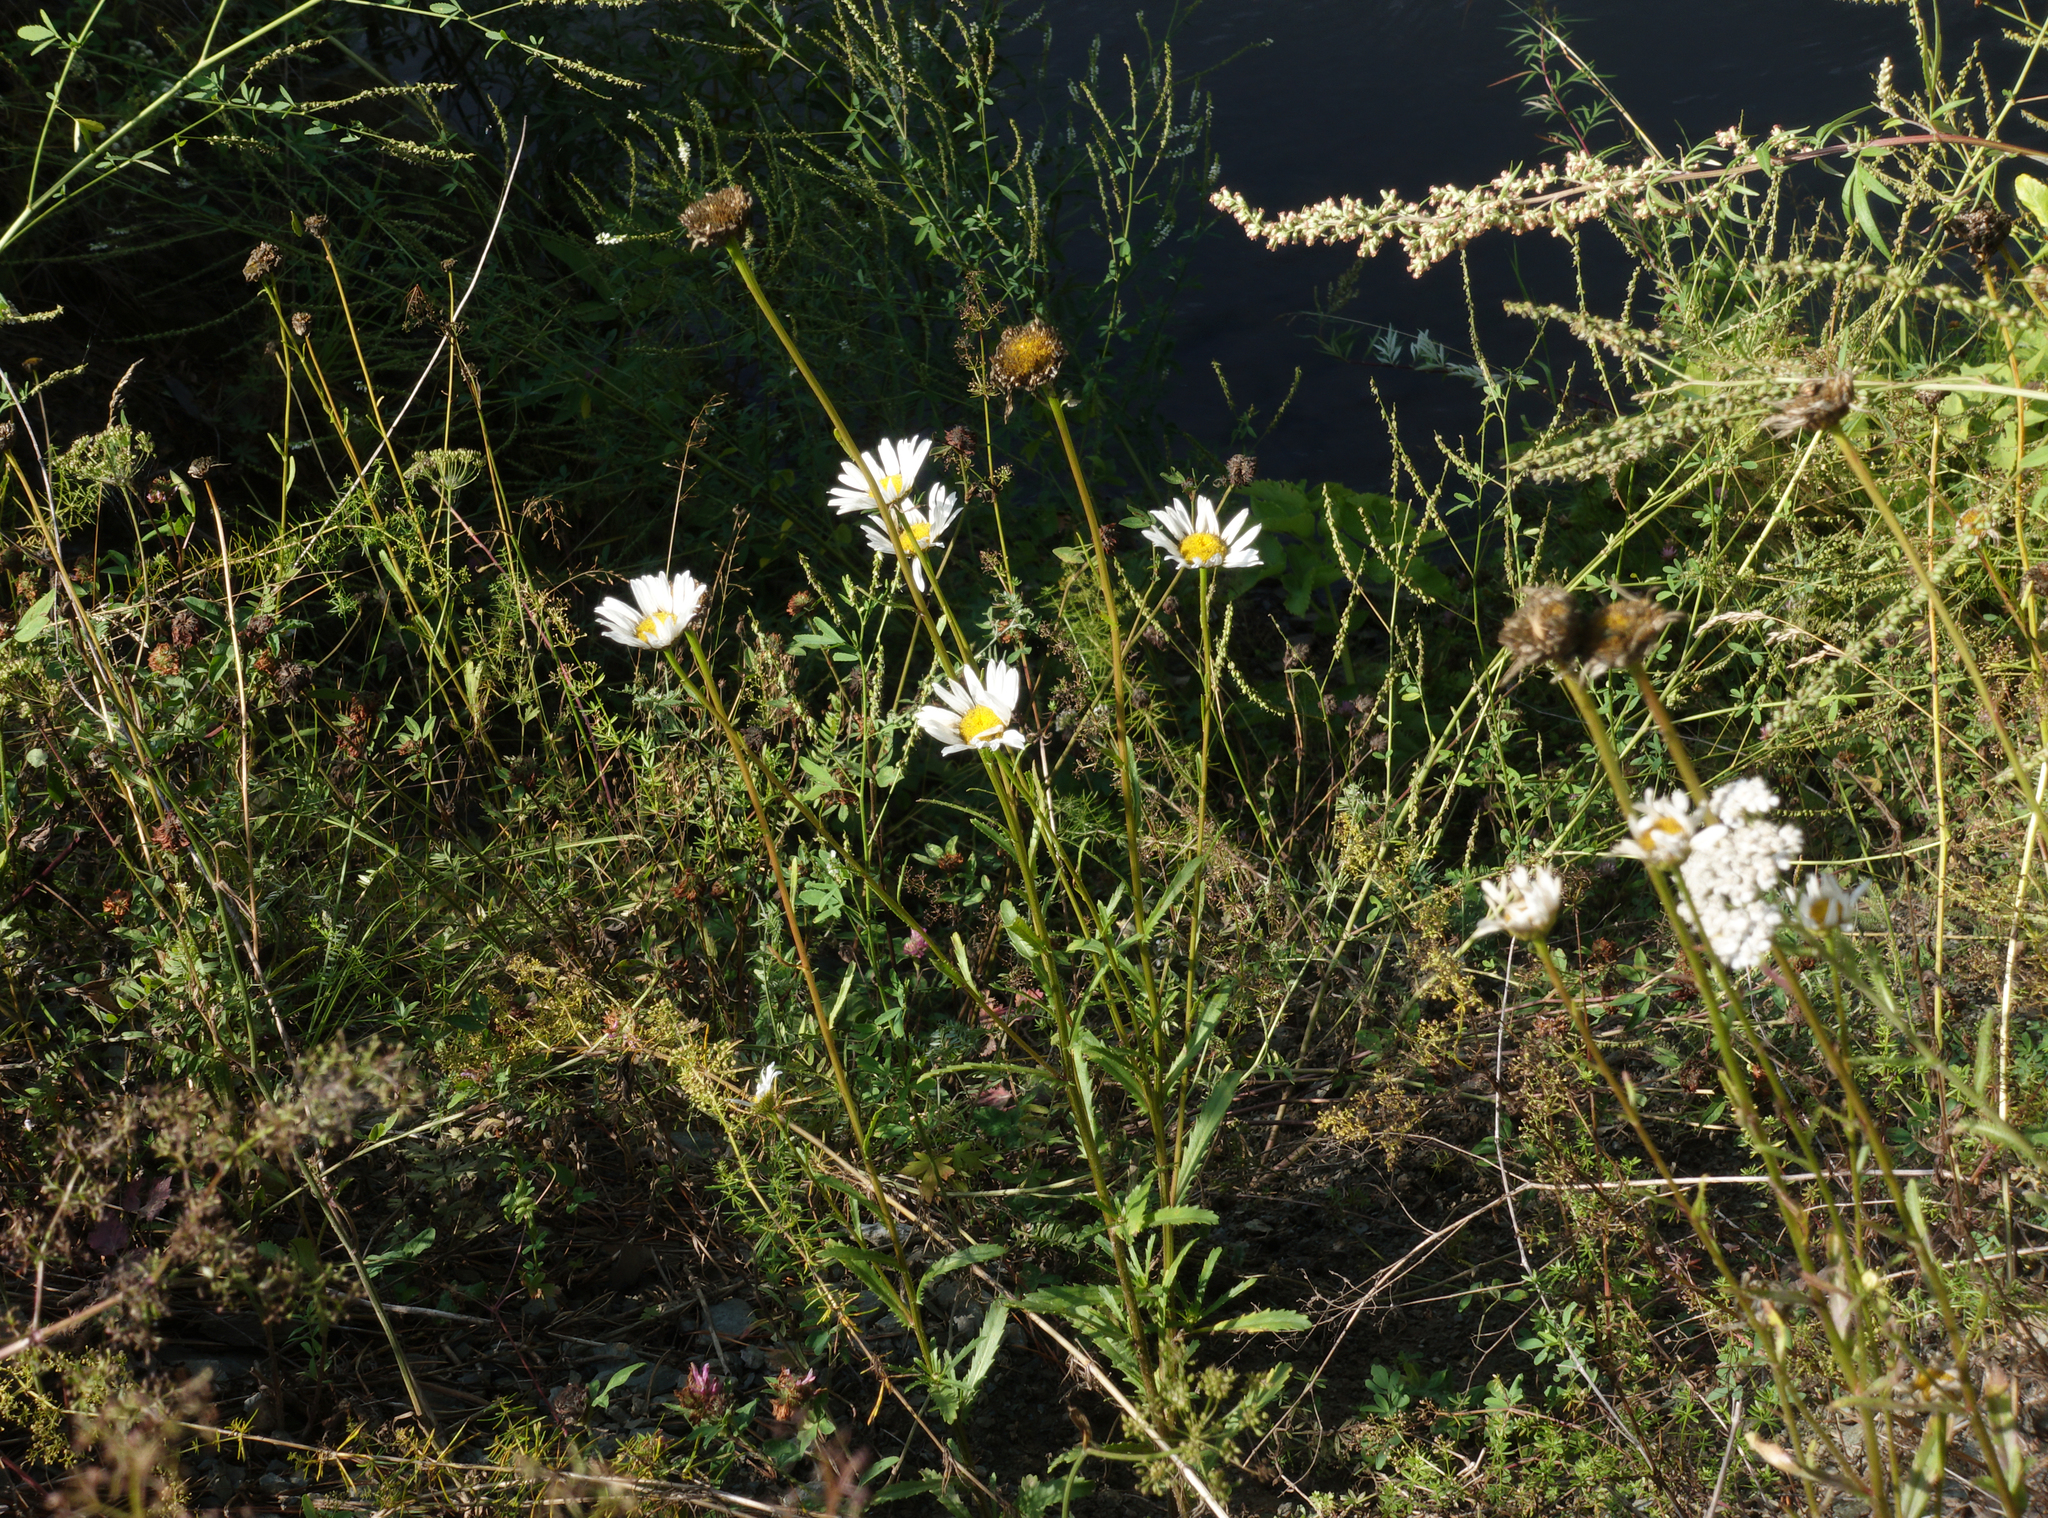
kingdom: Plantae
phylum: Tracheophyta
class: Magnoliopsida
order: Asterales
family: Asteraceae
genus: Leucanthemum
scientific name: Leucanthemum ircutianum
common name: Daisy
